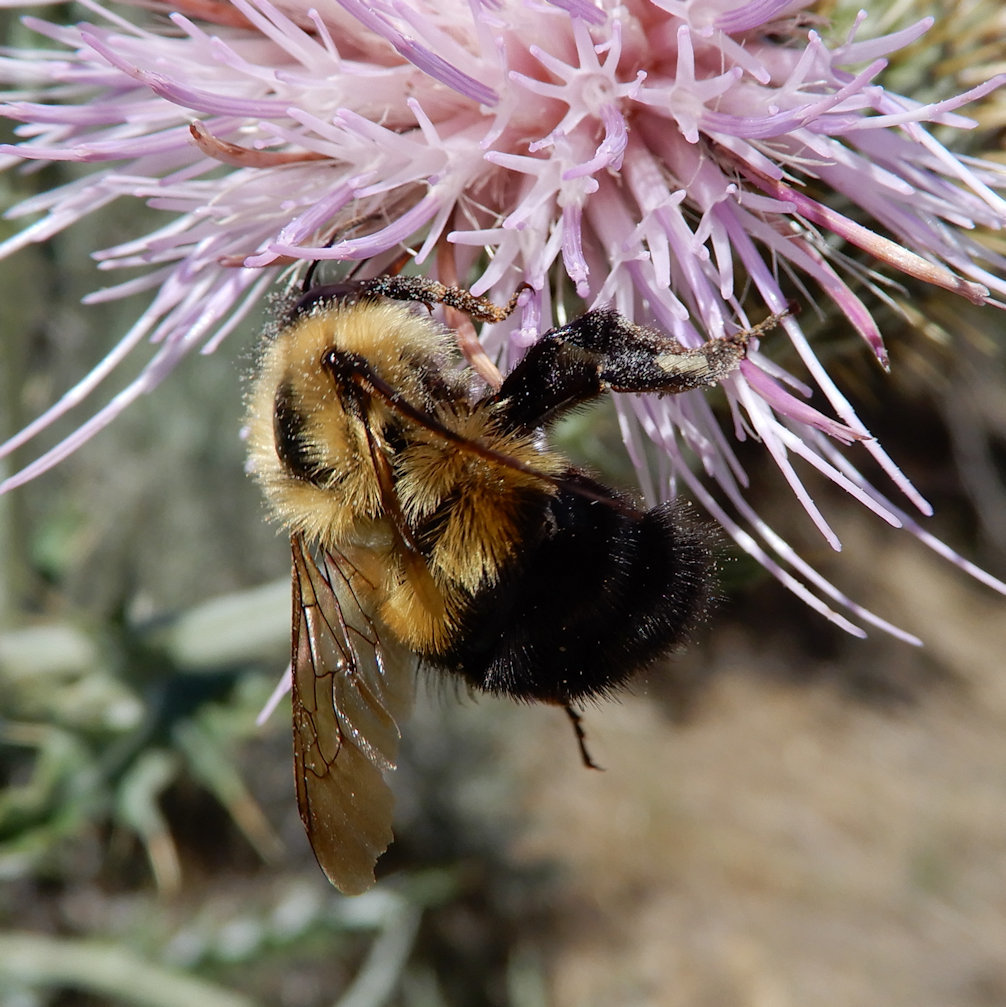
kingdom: Animalia
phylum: Arthropoda
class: Insecta
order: Hymenoptera
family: Apidae
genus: Bombus
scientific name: Bombus vagans
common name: Half-black bumble bee
